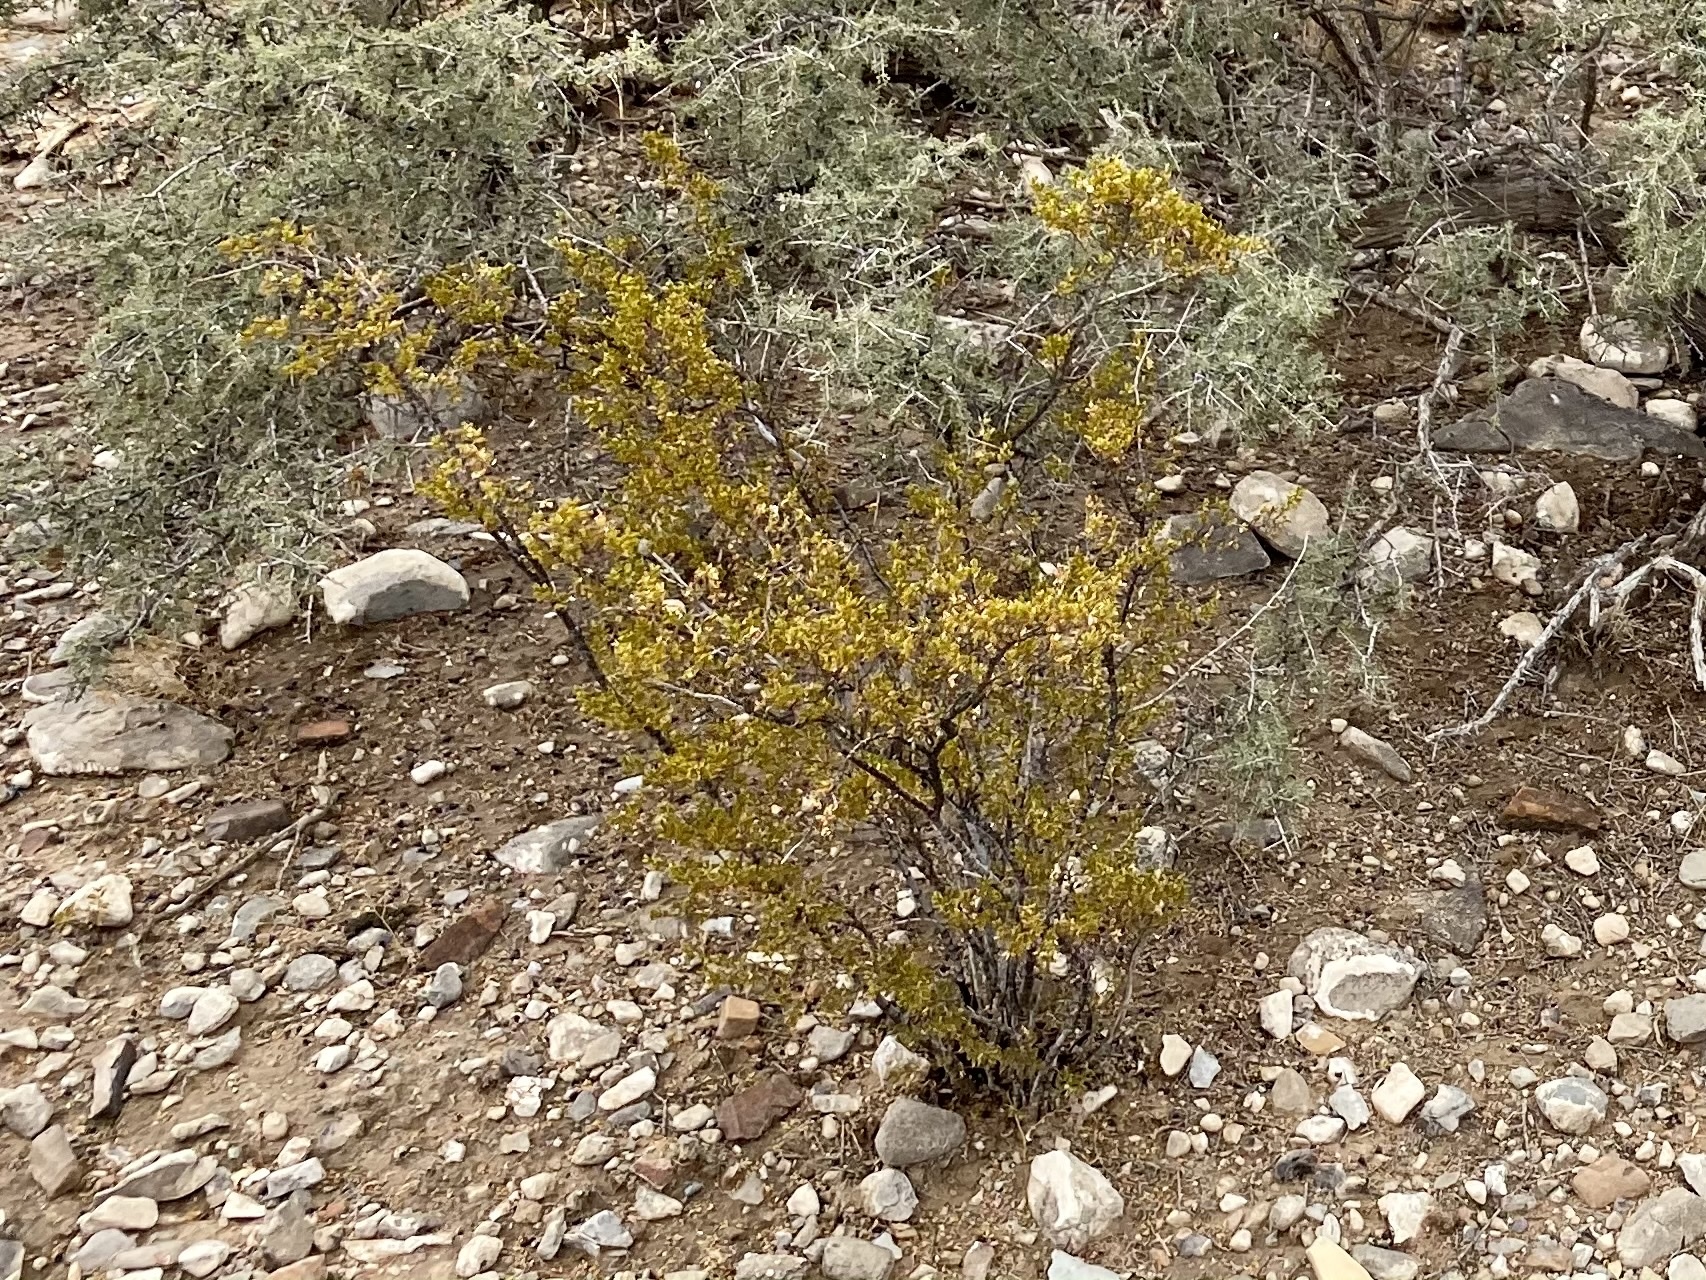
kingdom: Plantae
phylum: Tracheophyta
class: Magnoliopsida
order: Zygophyllales
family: Zygophyllaceae
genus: Larrea
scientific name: Larrea tridentata
